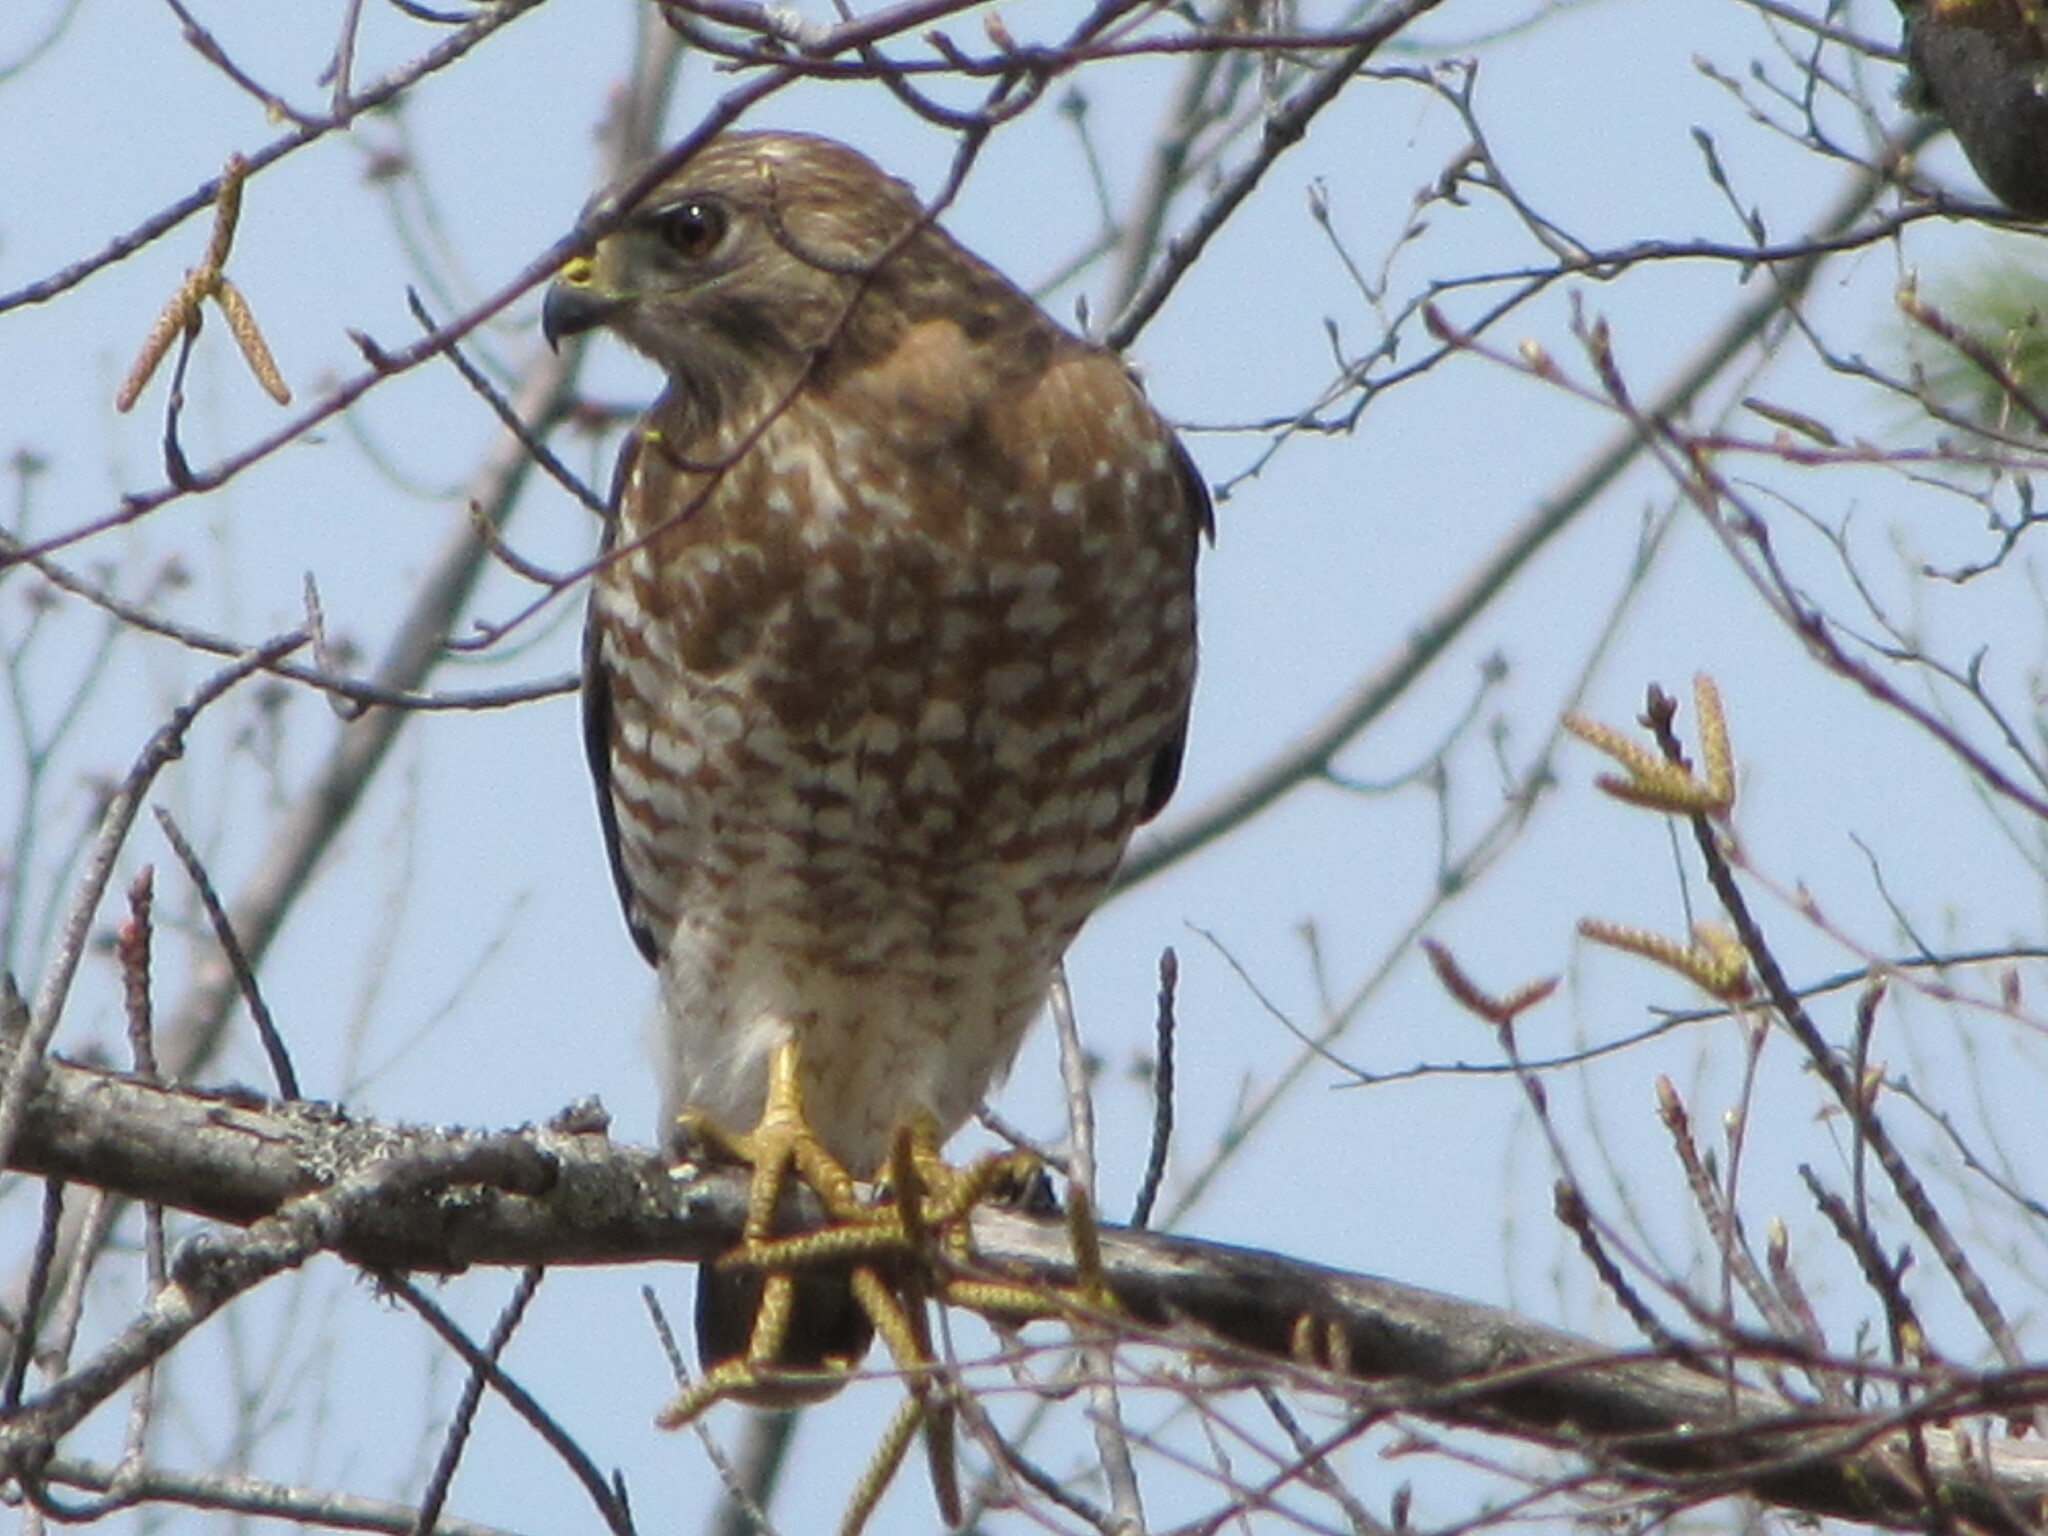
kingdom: Animalia
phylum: Chordata
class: Aves
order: Accipitriformes
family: Accipitridae
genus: Buteo
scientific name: Buteo platypterus
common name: Broad-winged hawk
